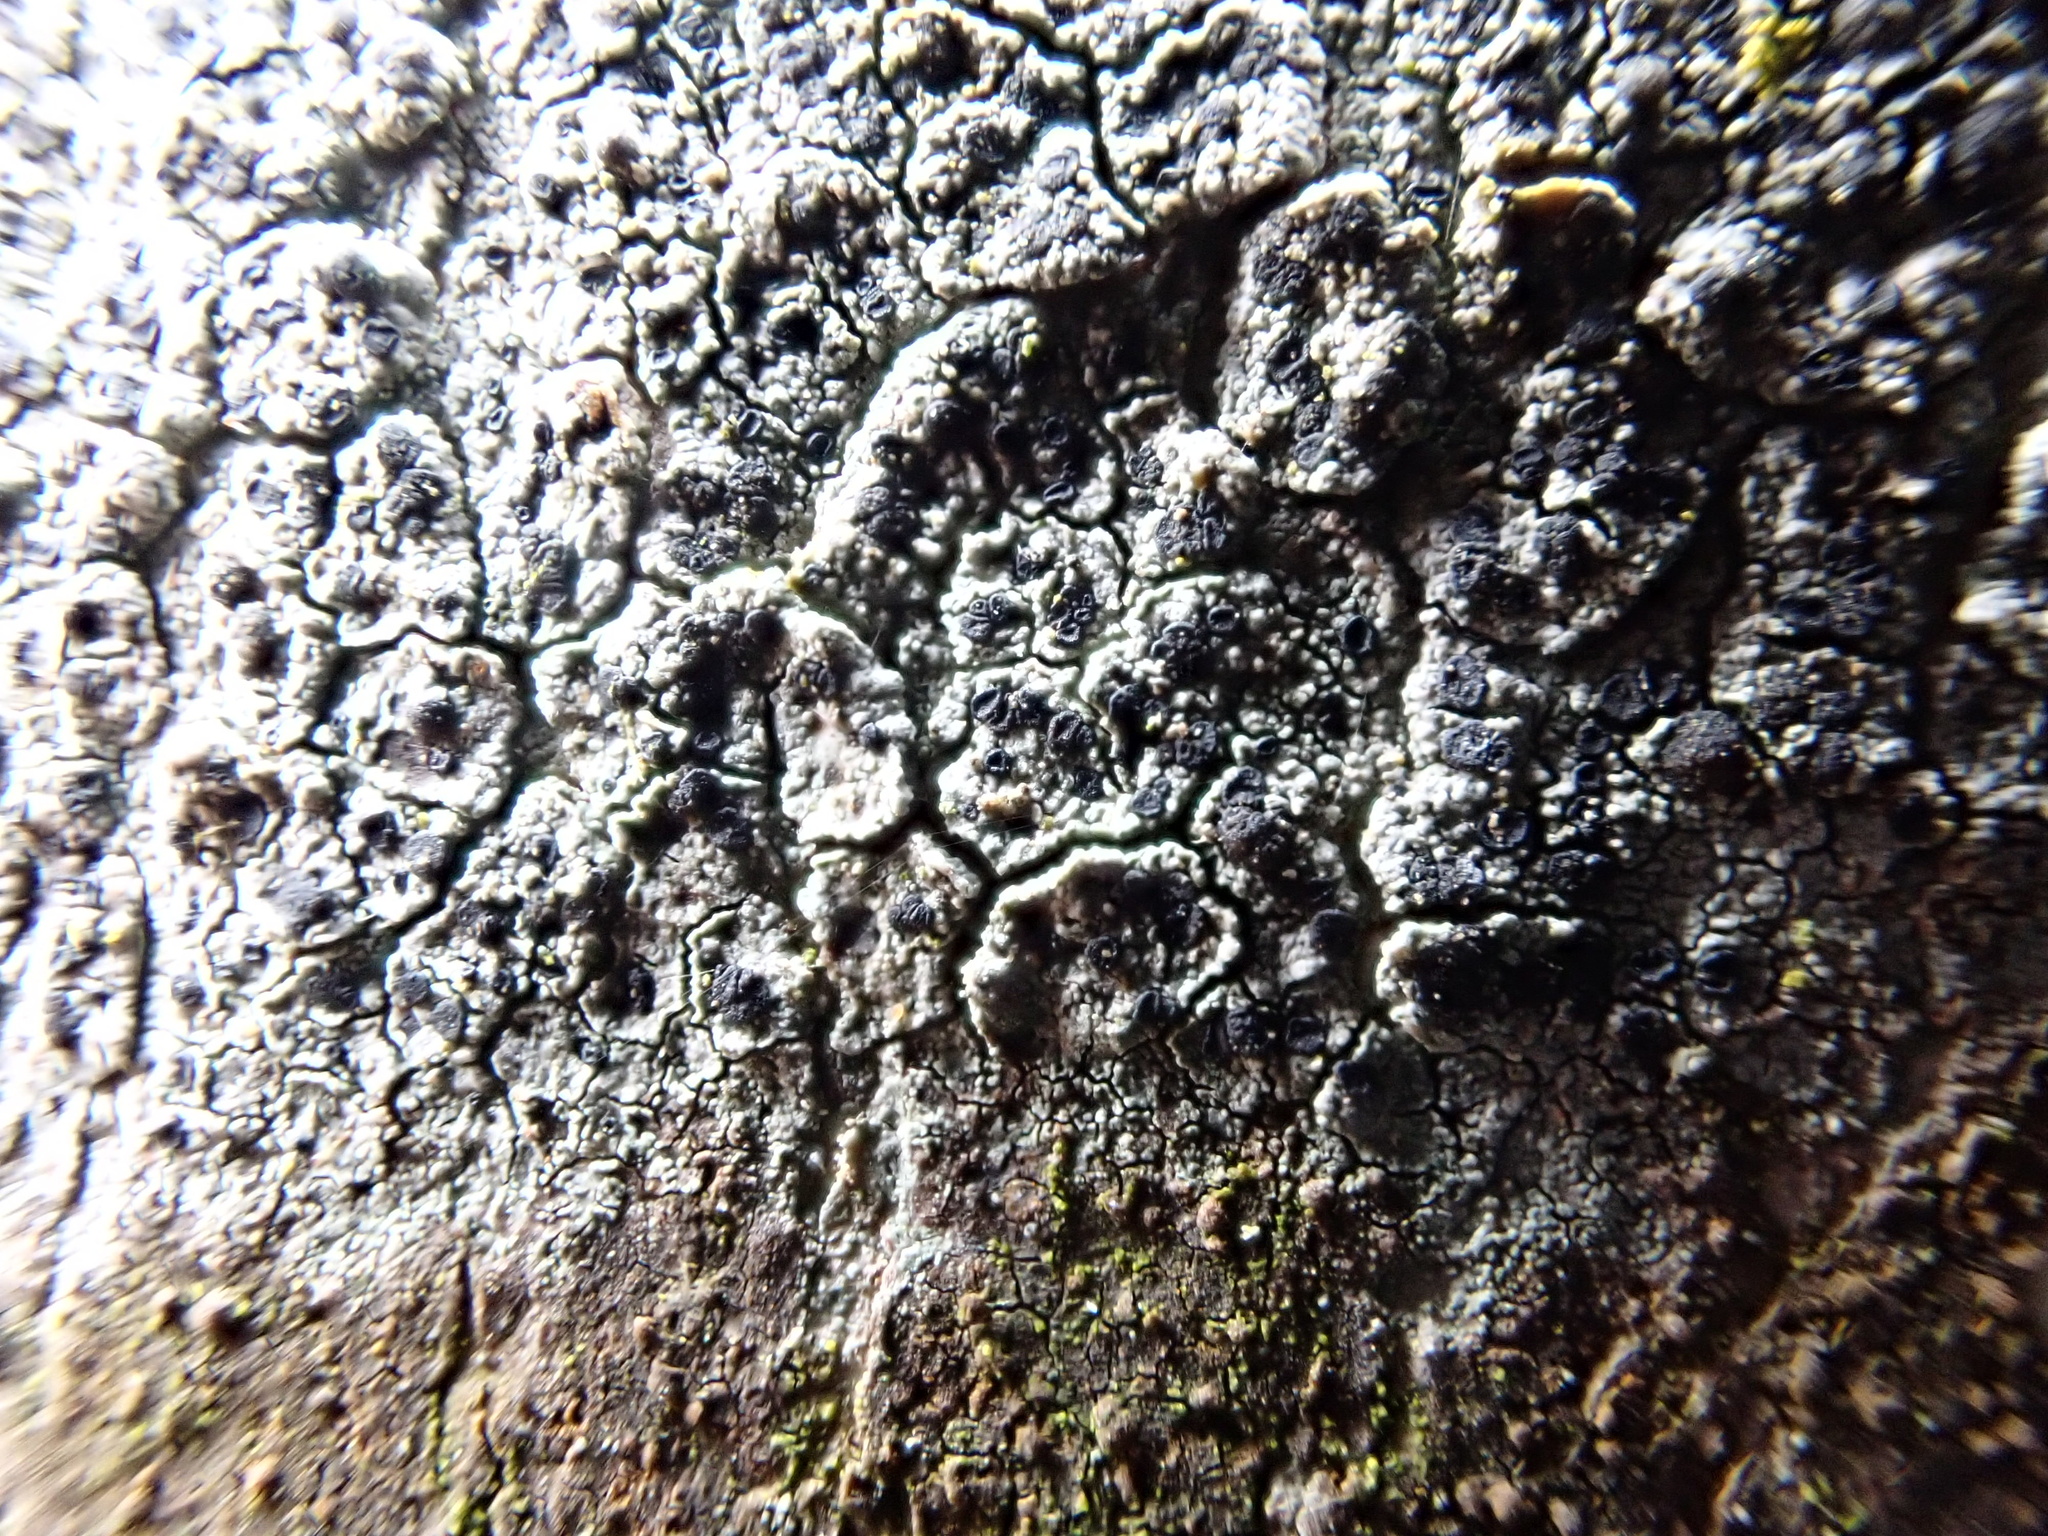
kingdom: Fungi
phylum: Ascomycota
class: Lecanoromycetes
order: Lecanorales
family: Lecanoraceae
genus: Lecidella
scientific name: Lecidella elaeochroma
